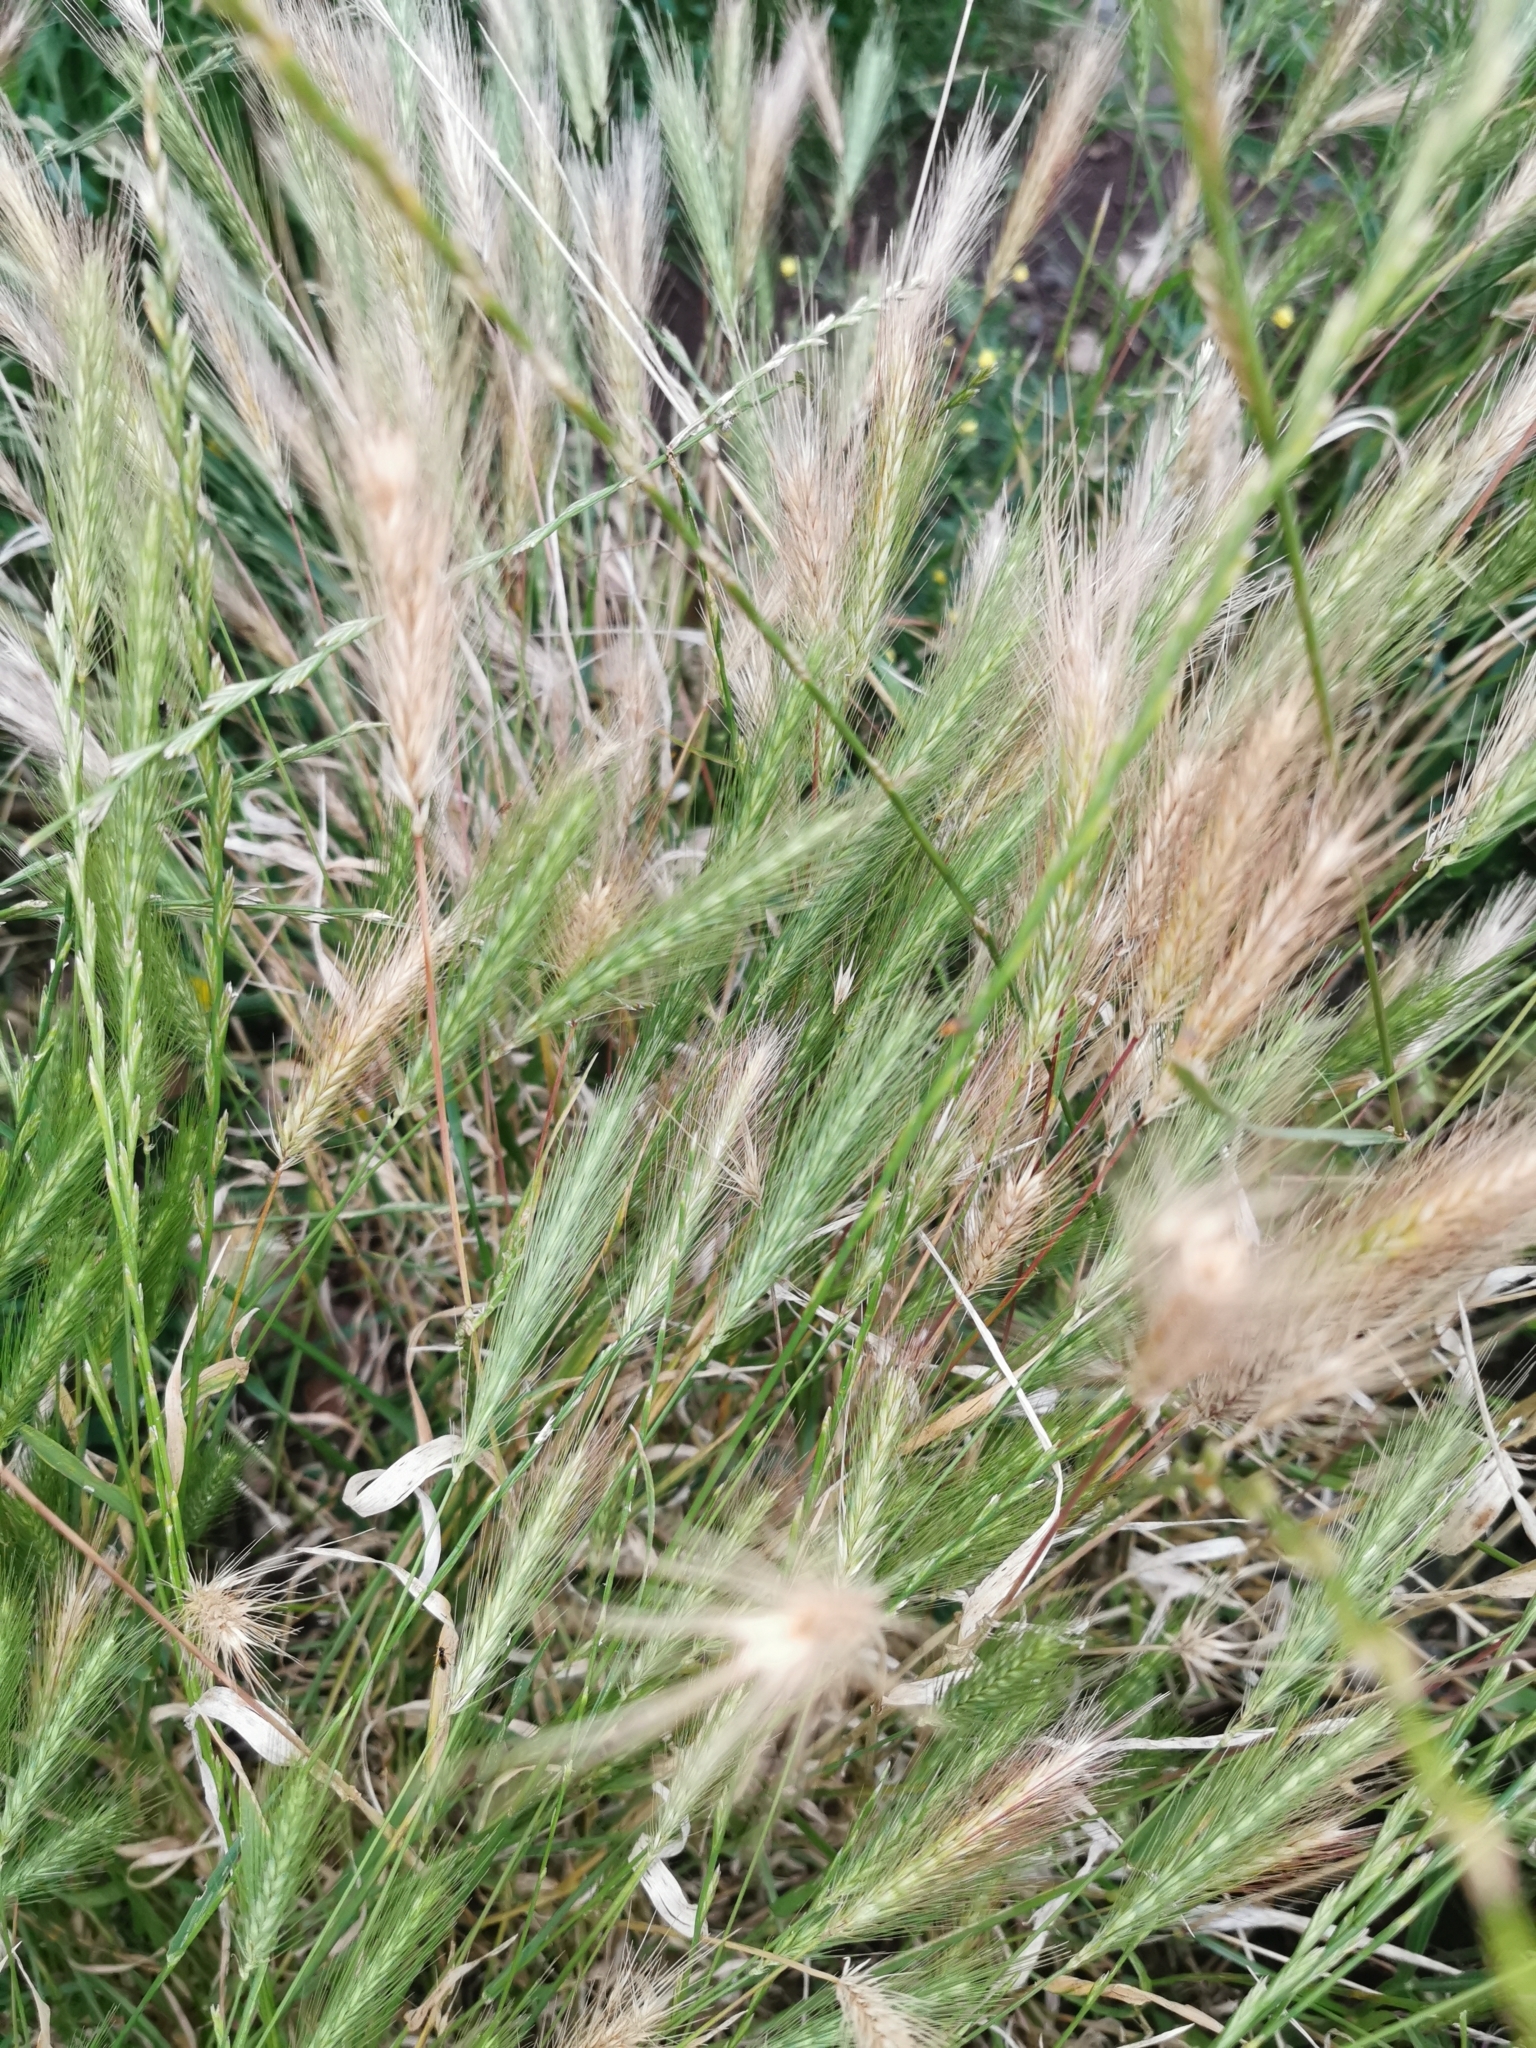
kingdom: Plantae
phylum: Tracheophyta
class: Liliopsida
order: Poales
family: Poaceae
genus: Hordeum
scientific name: Hordeum murinum
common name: Wall barley
